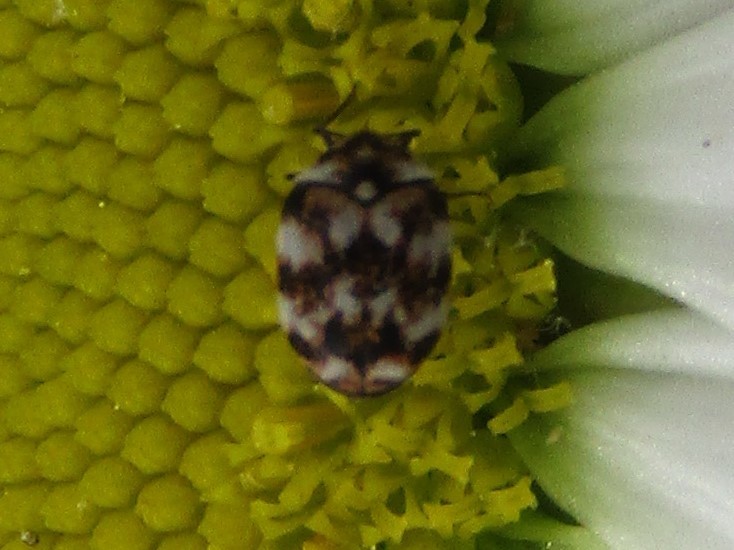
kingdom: Animalia
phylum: Arthropoda
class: Insecta
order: Coleoptera
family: Dermestidae
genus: Anthrenus
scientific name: Anthrenus verbasci
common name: Varied carpet beetle
